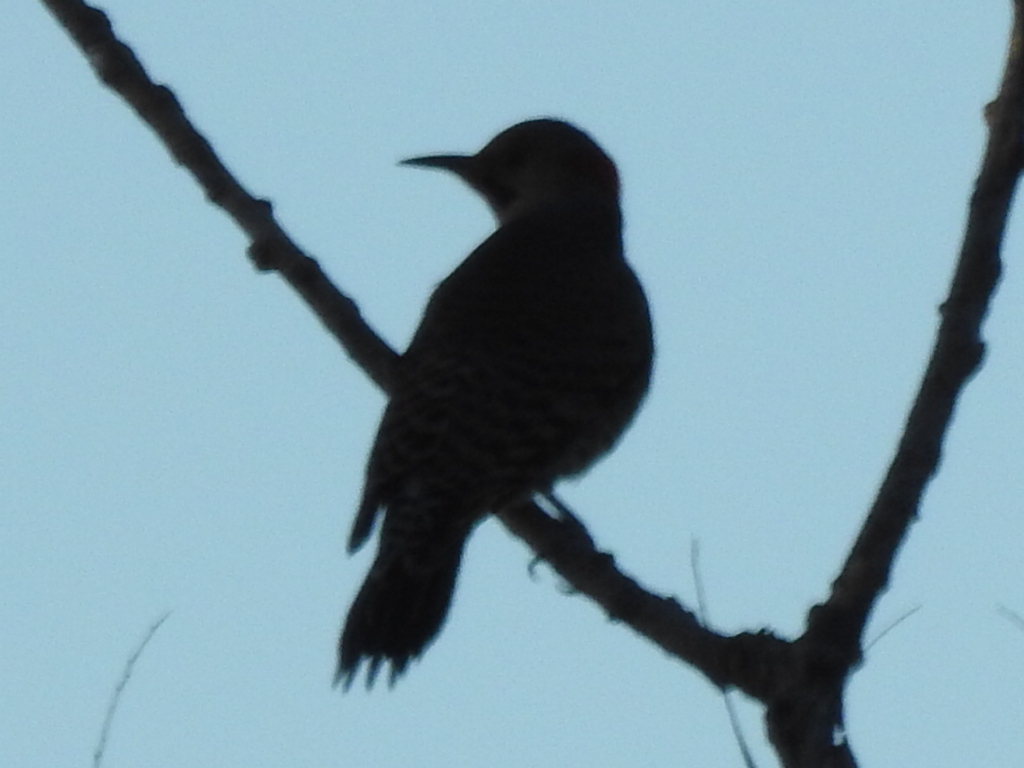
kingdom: Animalia
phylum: Chordata
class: Aves
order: Piciformes
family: Picidae
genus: Colaptes
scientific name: Colaptes auratus
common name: Northern flicker
